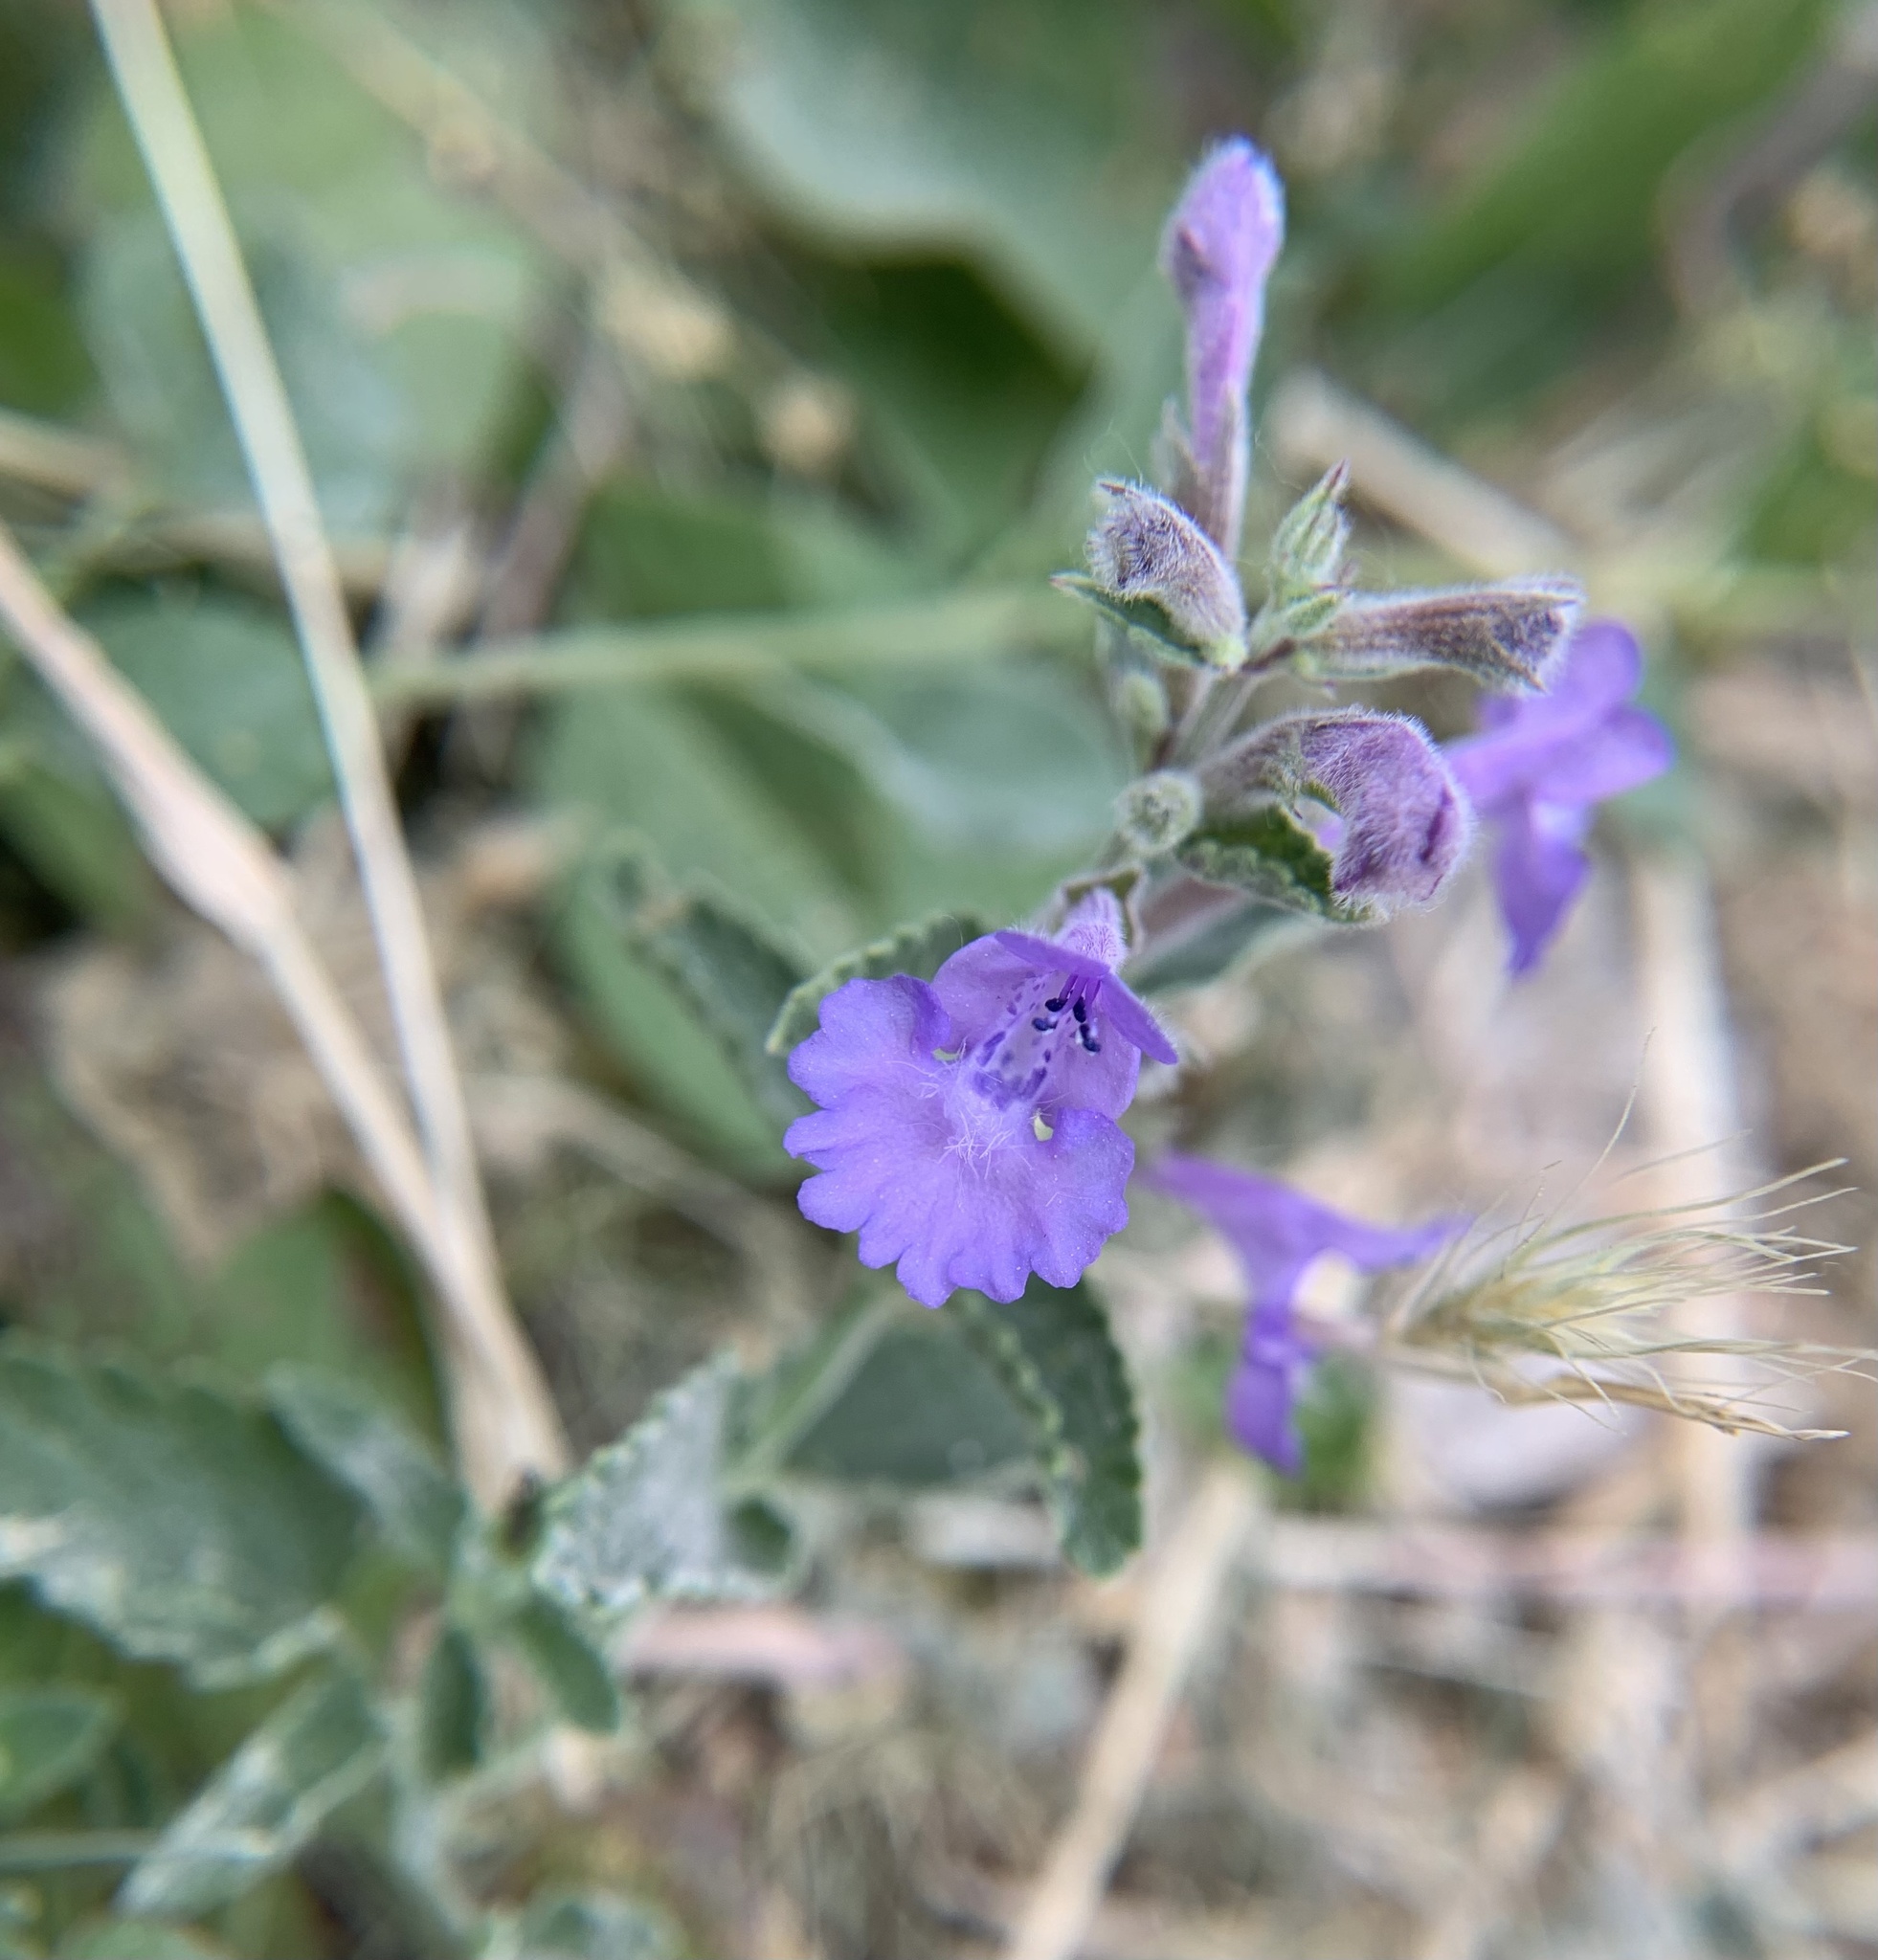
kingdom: Plantae
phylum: Tracheophyta
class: Magnoliopsida
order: Lamiales
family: Lamiaceae
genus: Nepeta
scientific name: Nepeta racemosa
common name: Raceme catnip
